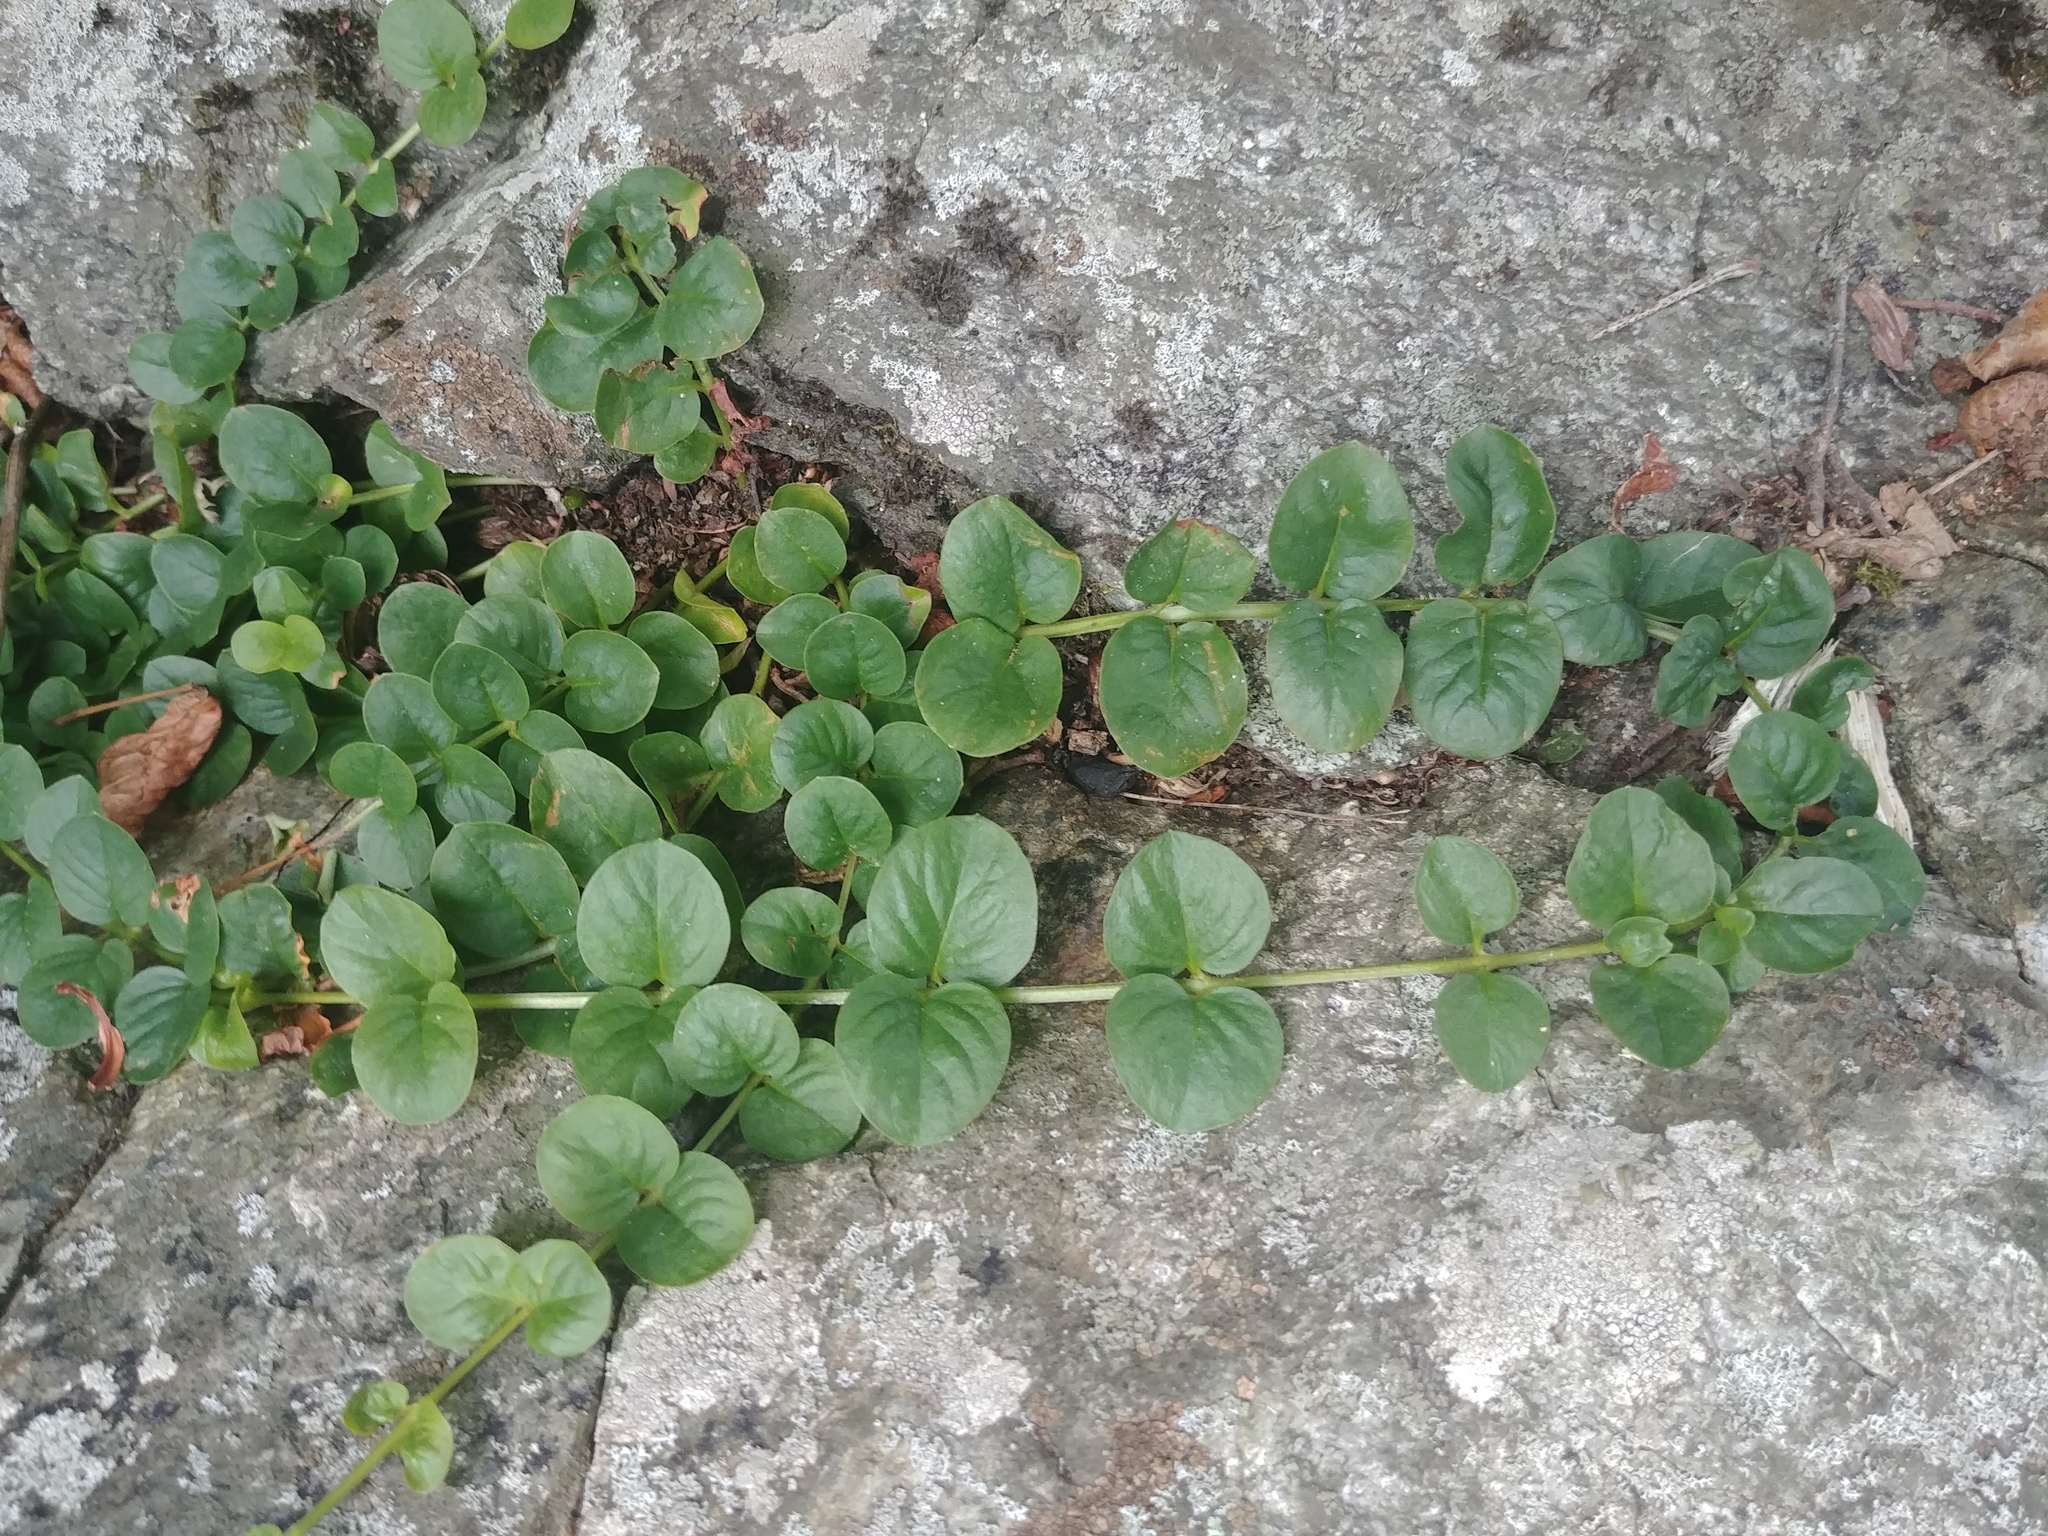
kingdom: Plantae
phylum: Tracheophyta
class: Magnoliopsida
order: Ericales
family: Primulaceae
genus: Lysimachia
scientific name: Lysimachia nummularia
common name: Moneywort
